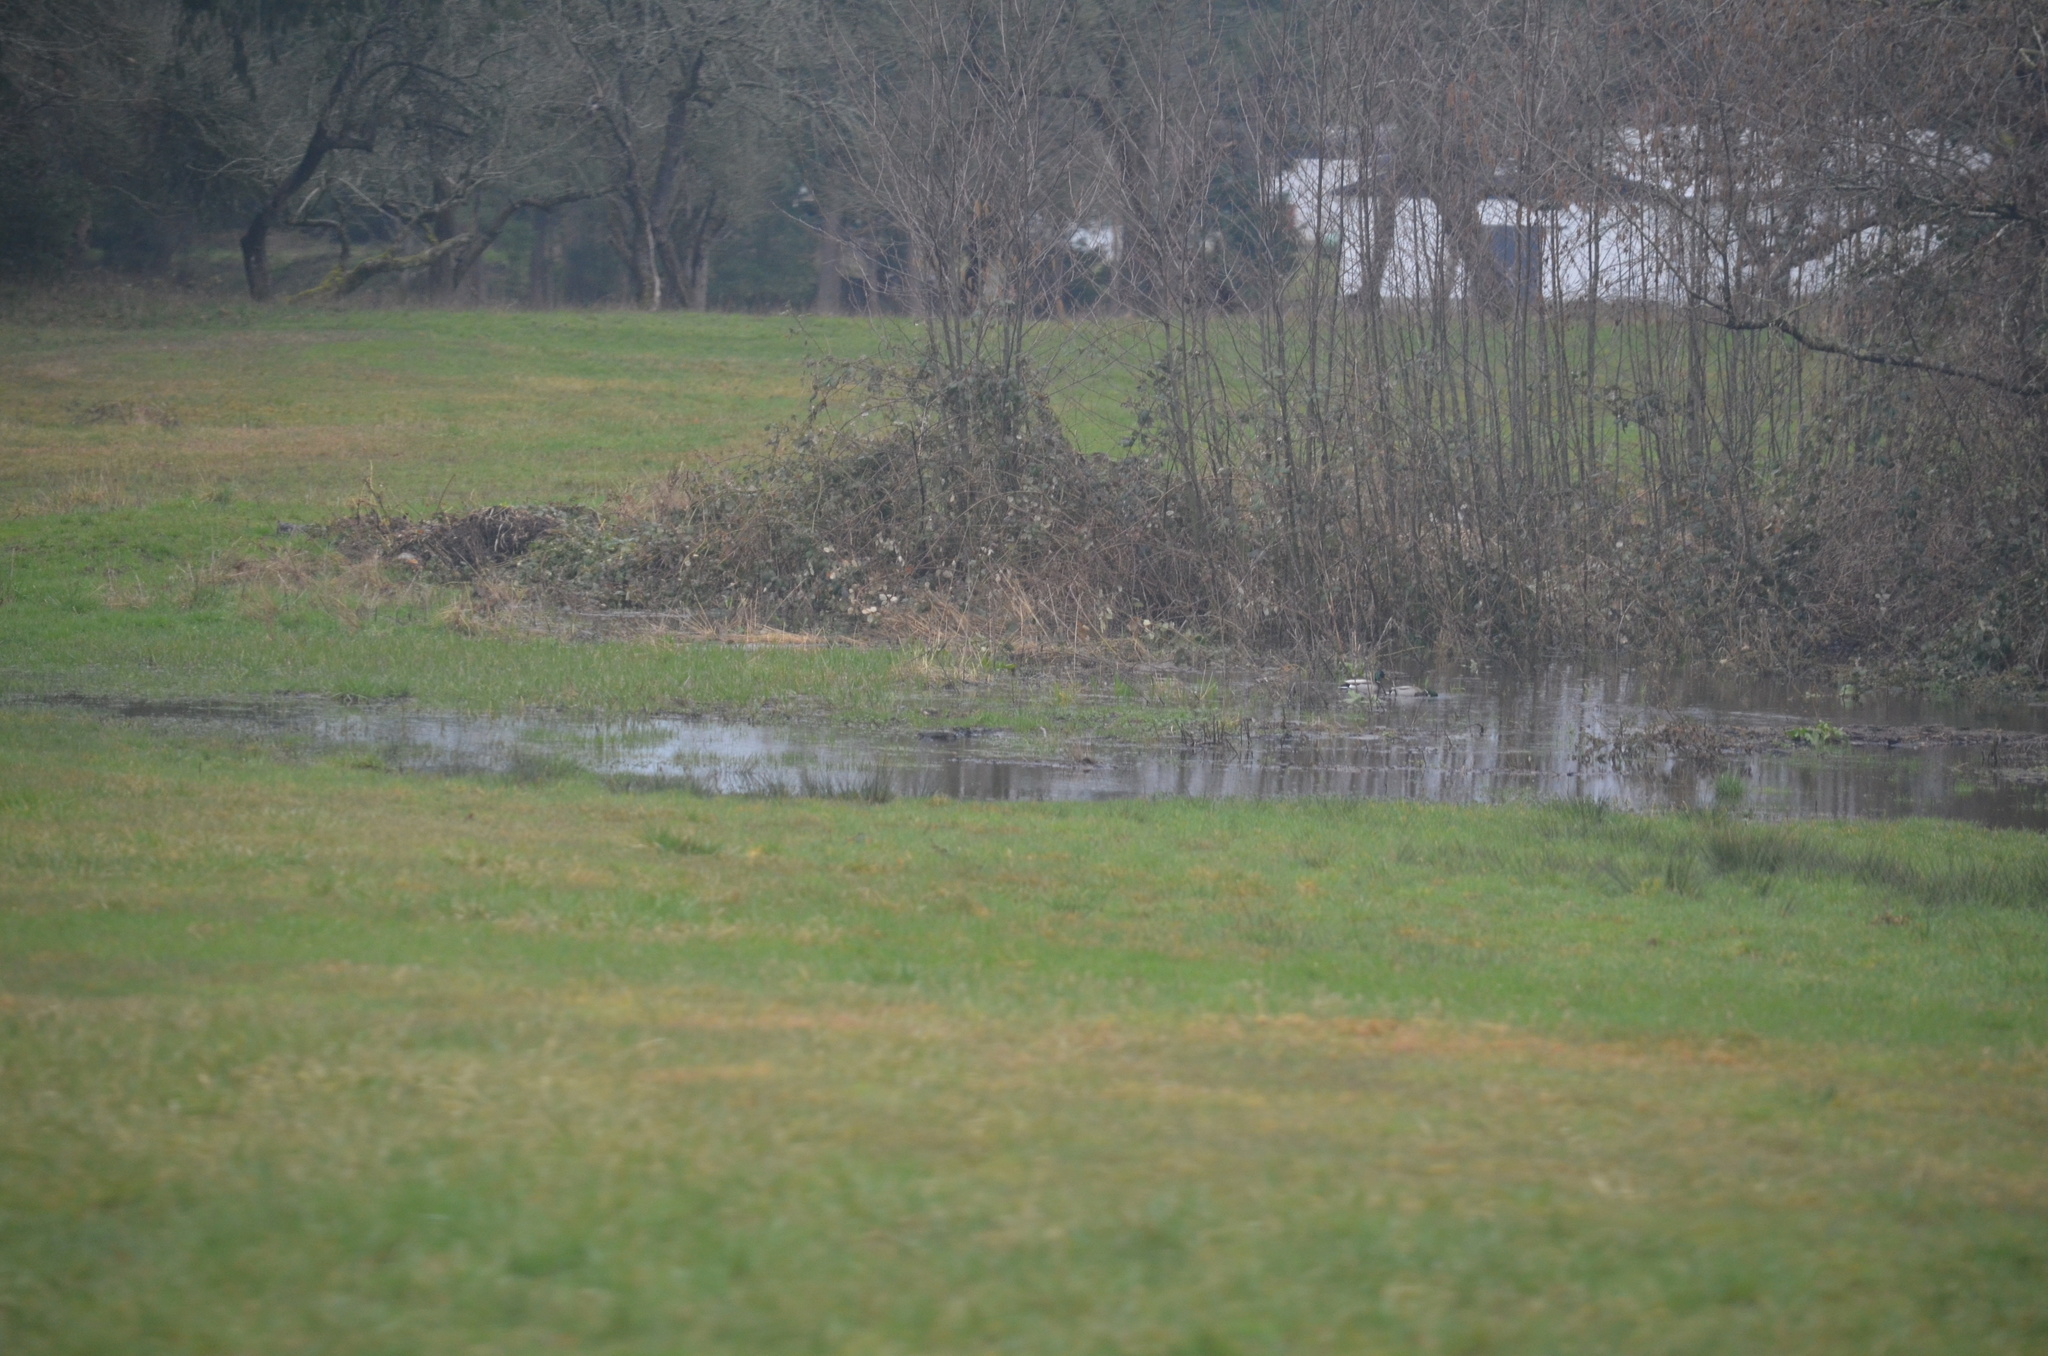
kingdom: Animalia
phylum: Chordata
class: Aves
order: Anseriformes
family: Anatidae
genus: Anas
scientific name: Anas platyrhynchos
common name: Mallard
